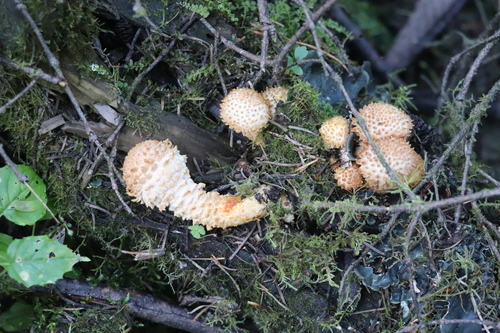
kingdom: Fungi
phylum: Basidiomycota
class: Agaricomycetes
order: Agaricales
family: Strophariaceae
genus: Pholiota
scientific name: Pholiota squarrosa
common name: Shaggy pholiota
